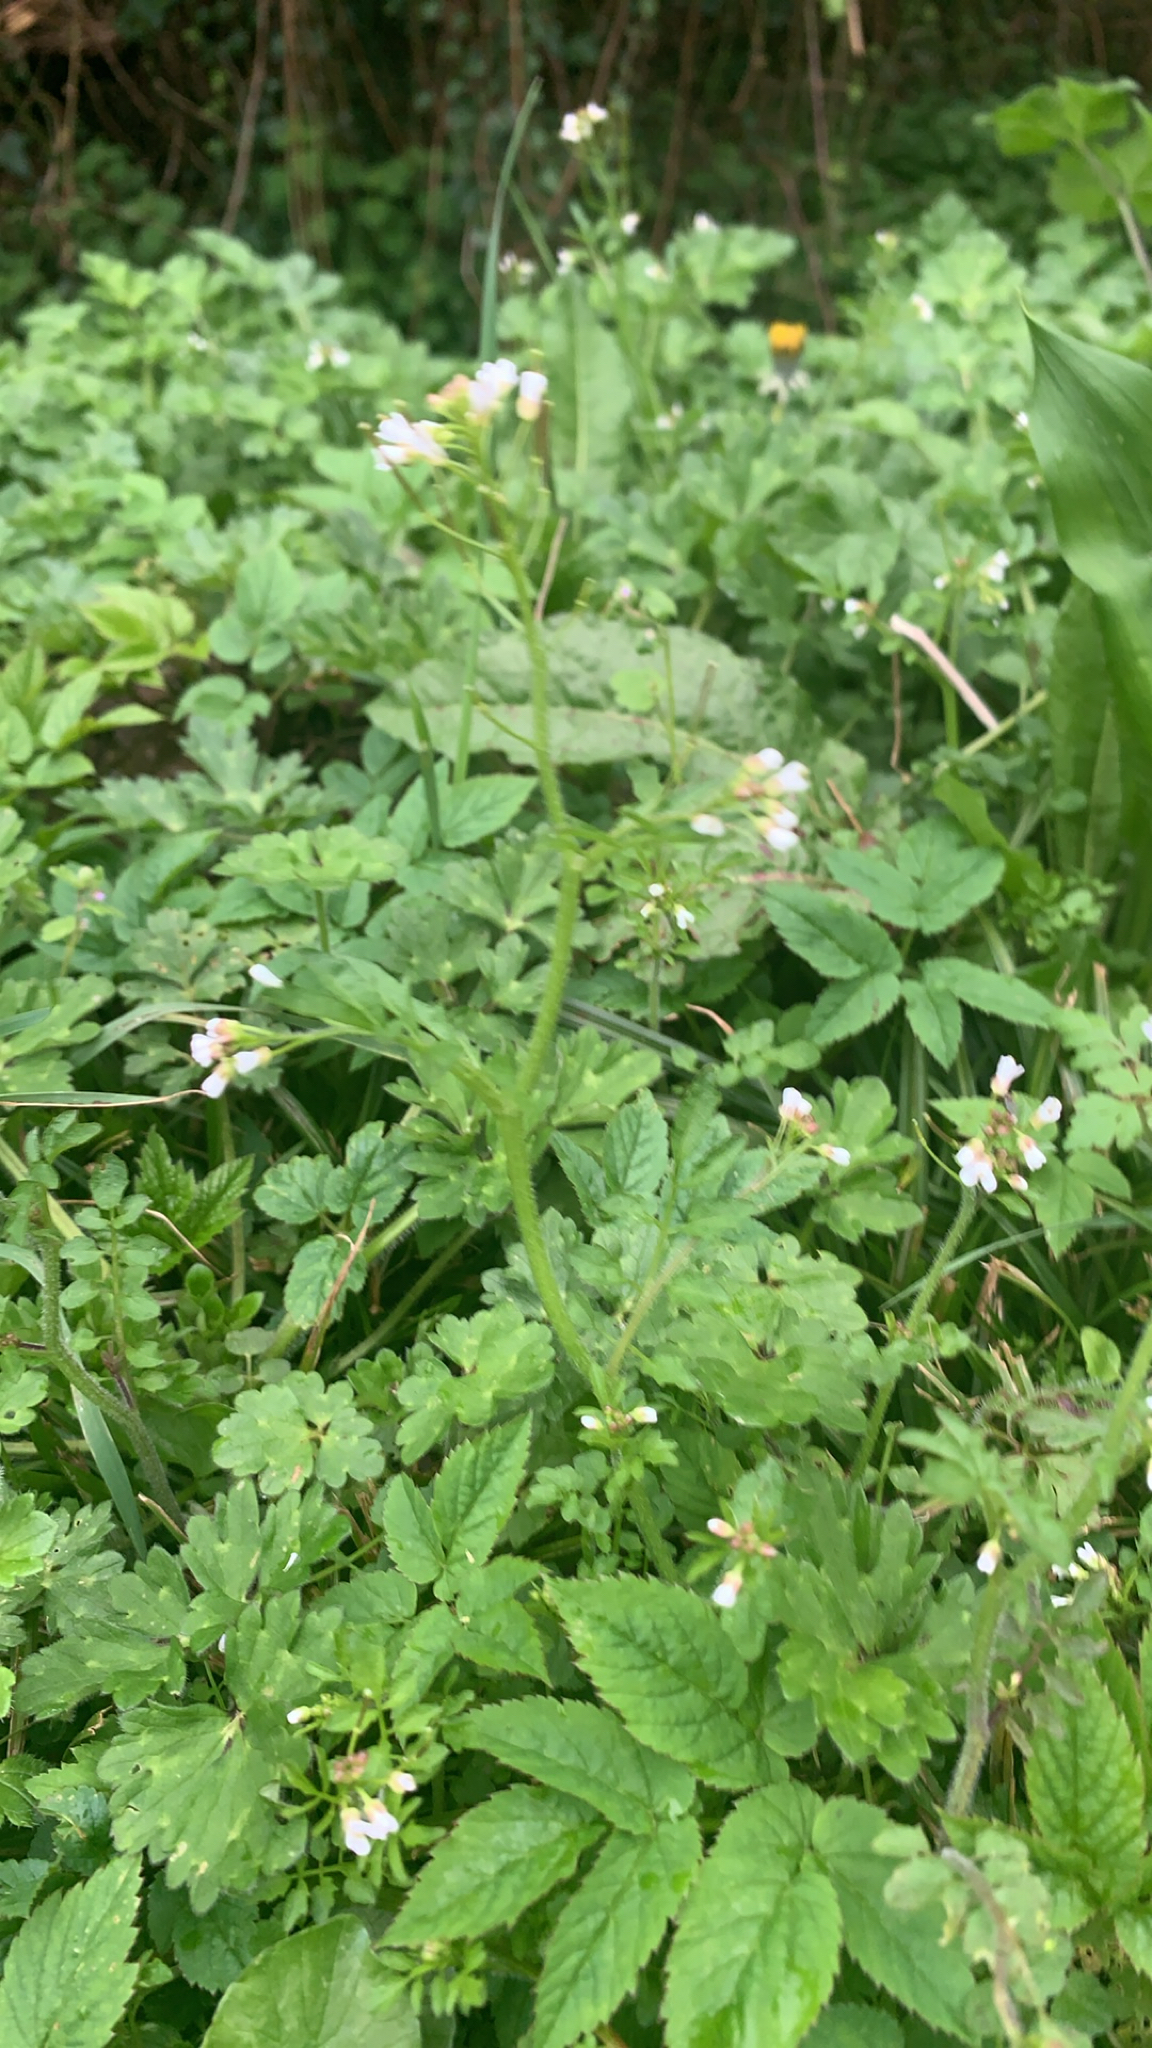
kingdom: Plantae
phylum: Tracheophyta
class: Magnoliopsida
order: Brassicales
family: Brassicaceae
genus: Cardamine
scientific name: Cardamine flexuosa
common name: Woodland bittercress
